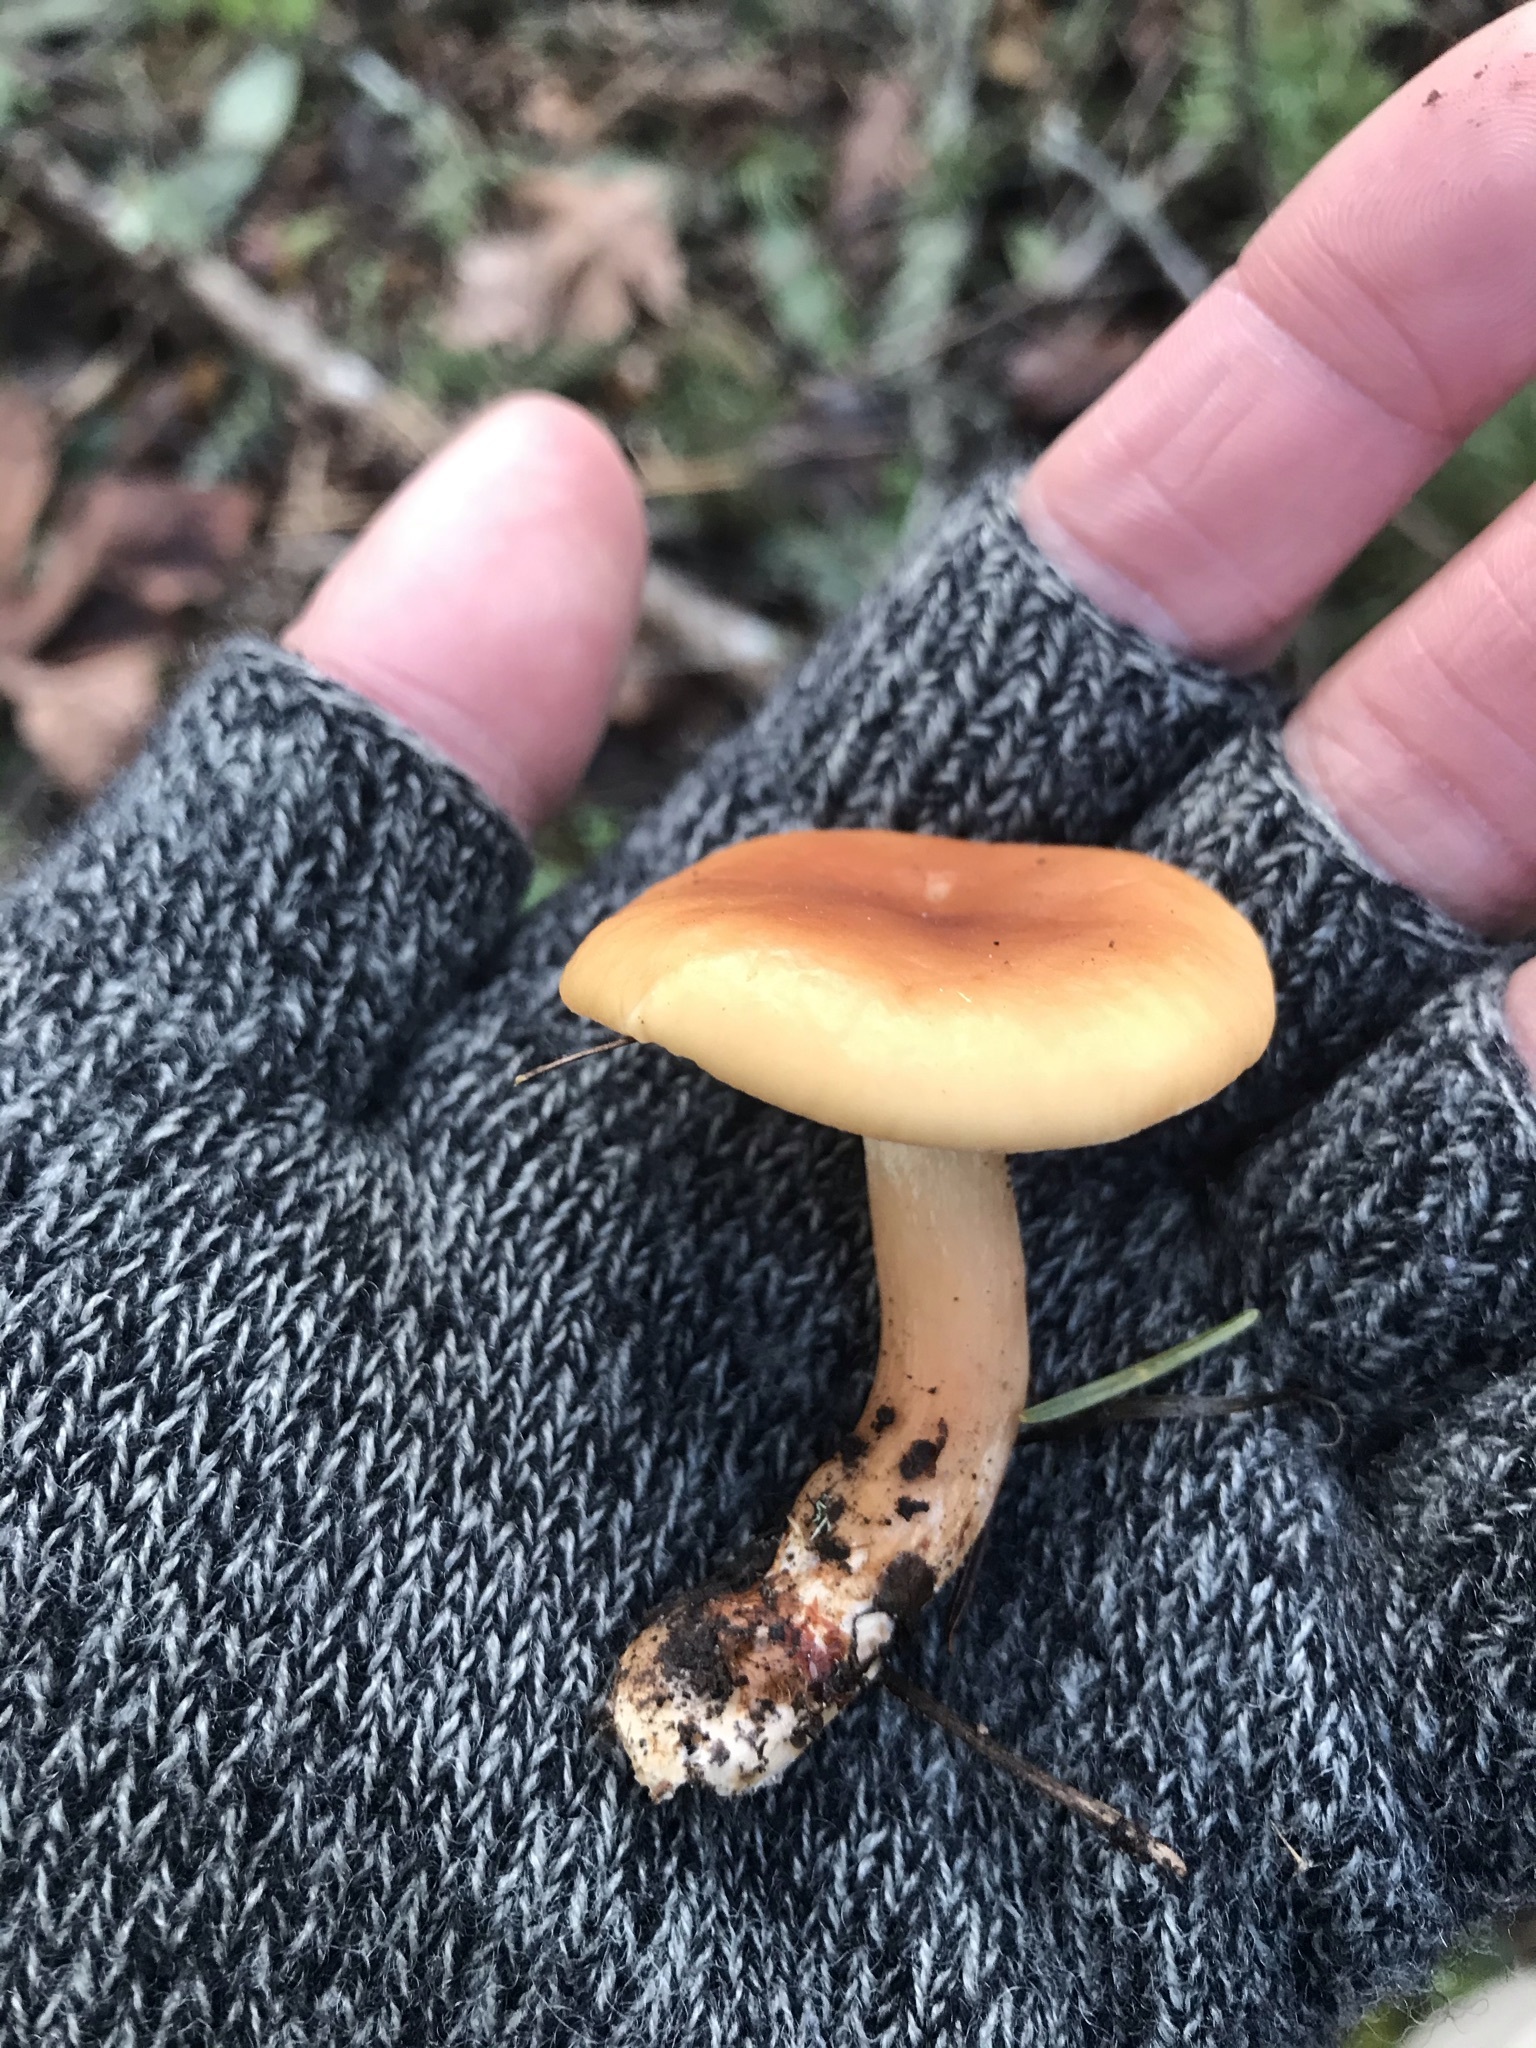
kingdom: Fungi
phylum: Basidiomycota
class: Agaricomycetes
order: Agaricales
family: Tricholomataceae
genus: Paralepista
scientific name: Paralepista flaccida
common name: Tawny funnel cap
